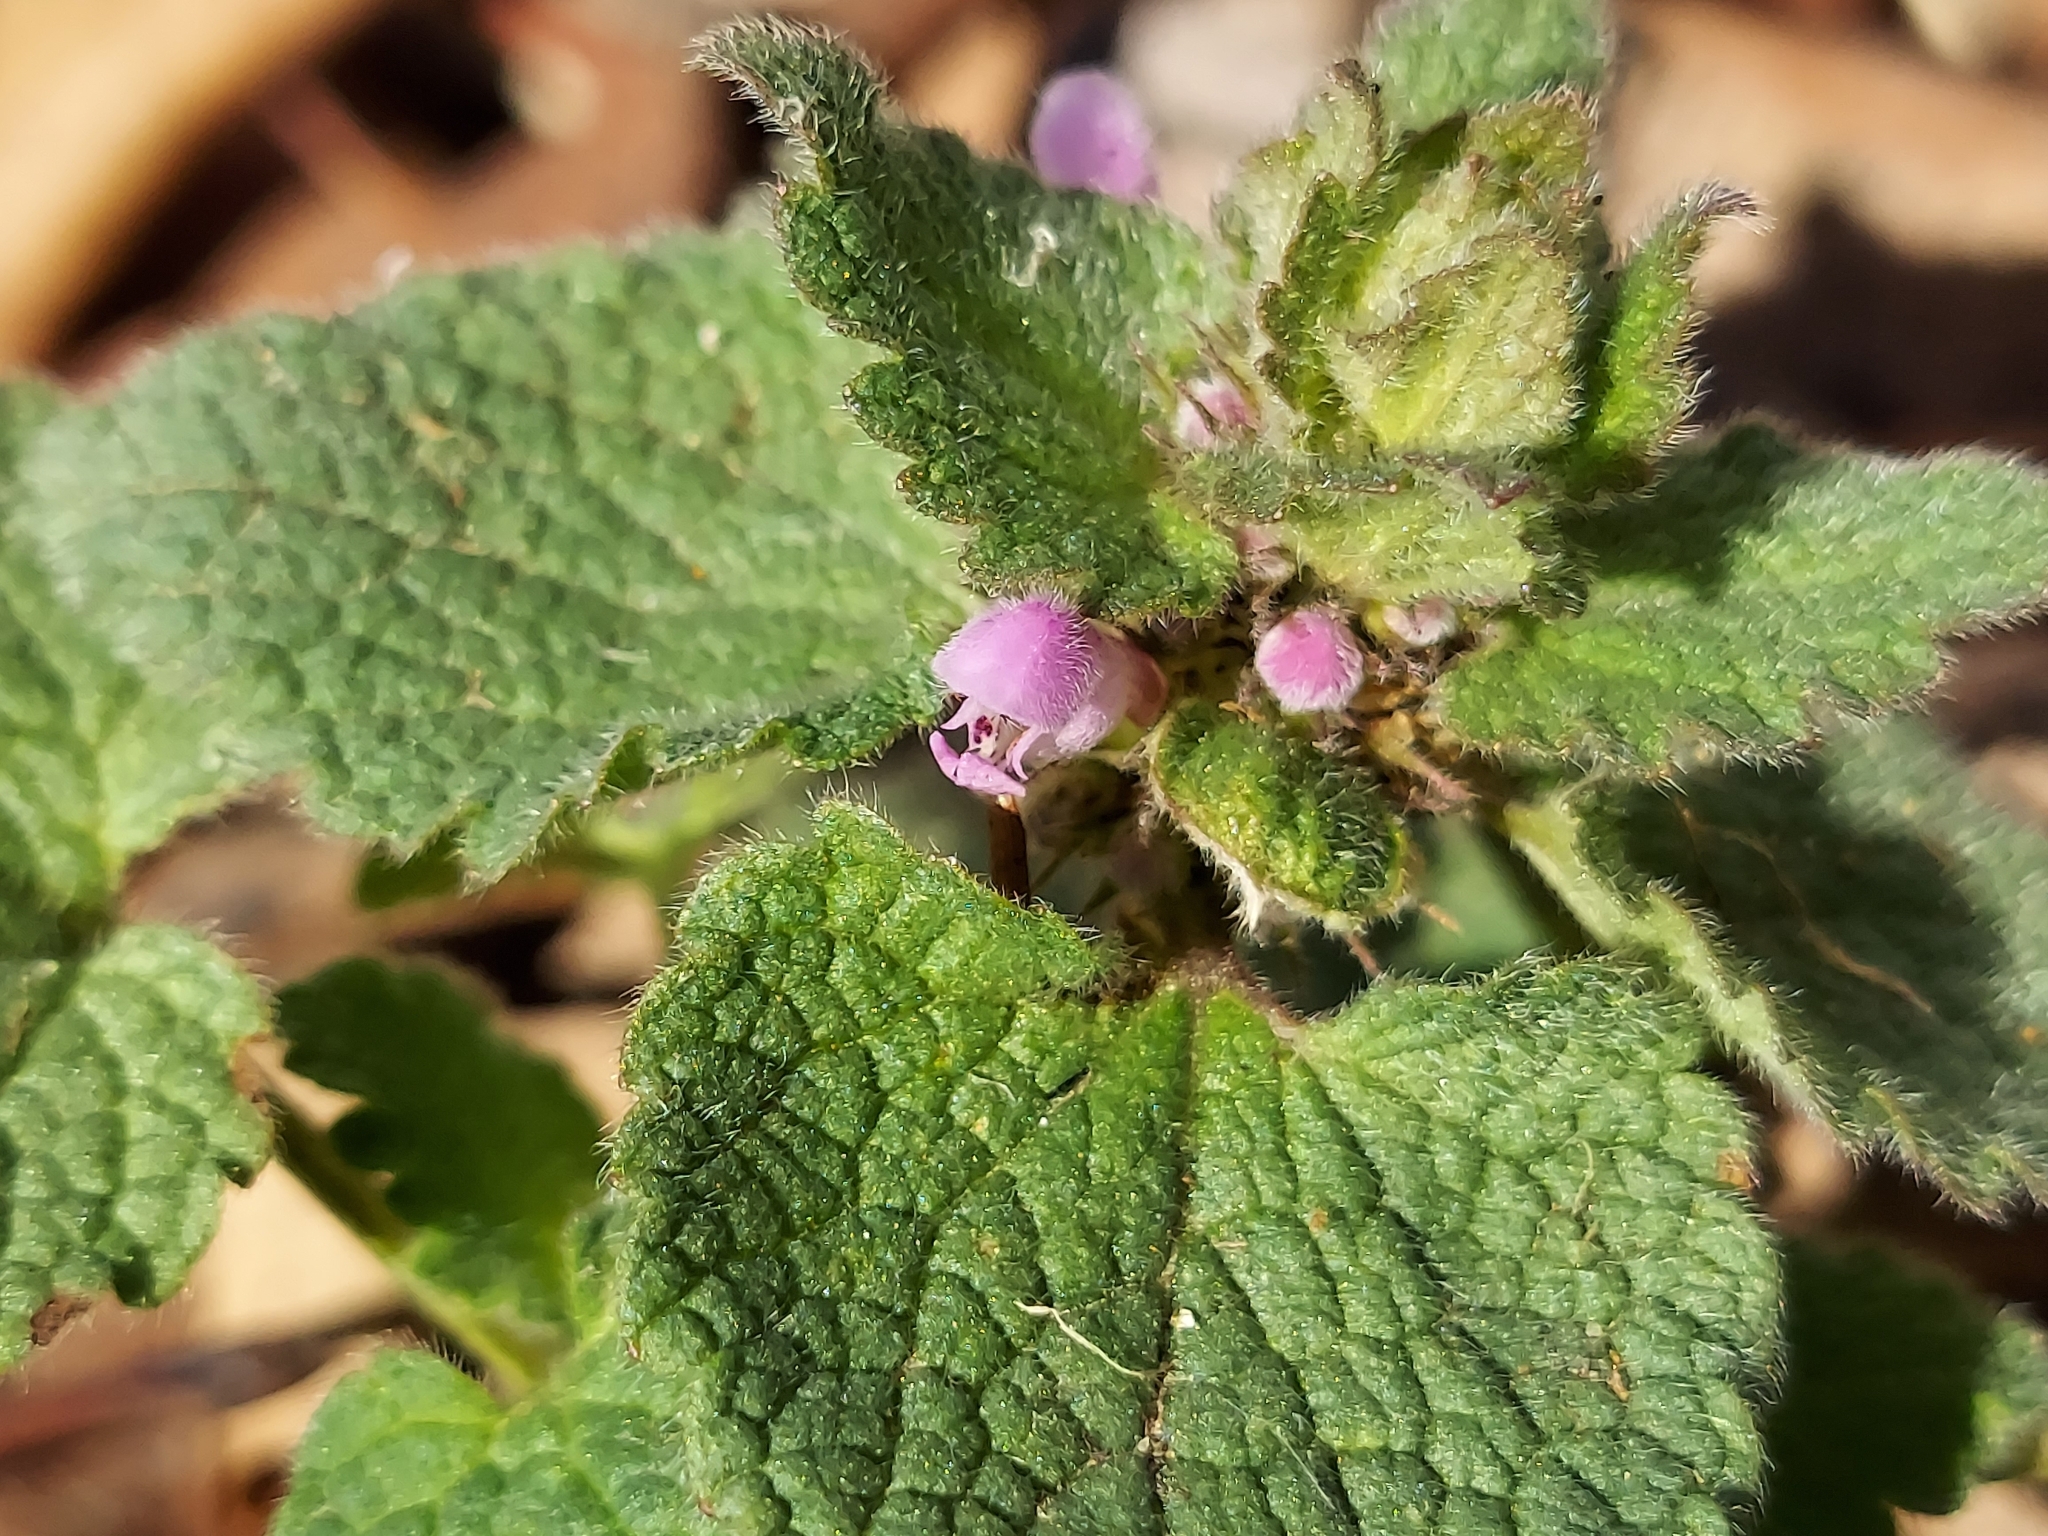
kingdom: Plantae
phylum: Tracheophyta
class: Magnoliopsida
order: Lamiales
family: Lamiaceae
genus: Lamium
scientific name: Lamium purpureum
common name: Red dead-nettle
